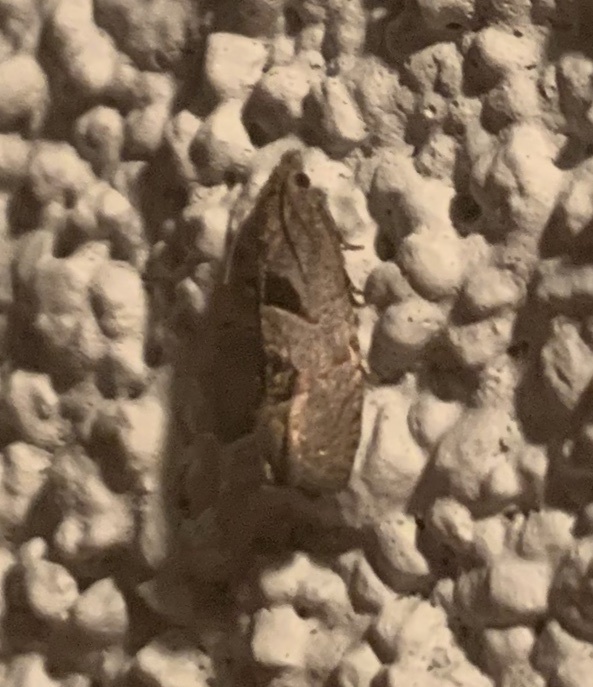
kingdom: Animalia
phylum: Arthropoda
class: Insecta
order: Lepidoptera
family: Tortricidae
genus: Eucosma
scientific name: Eucosma tomonana
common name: Aster-head eucosma moth
